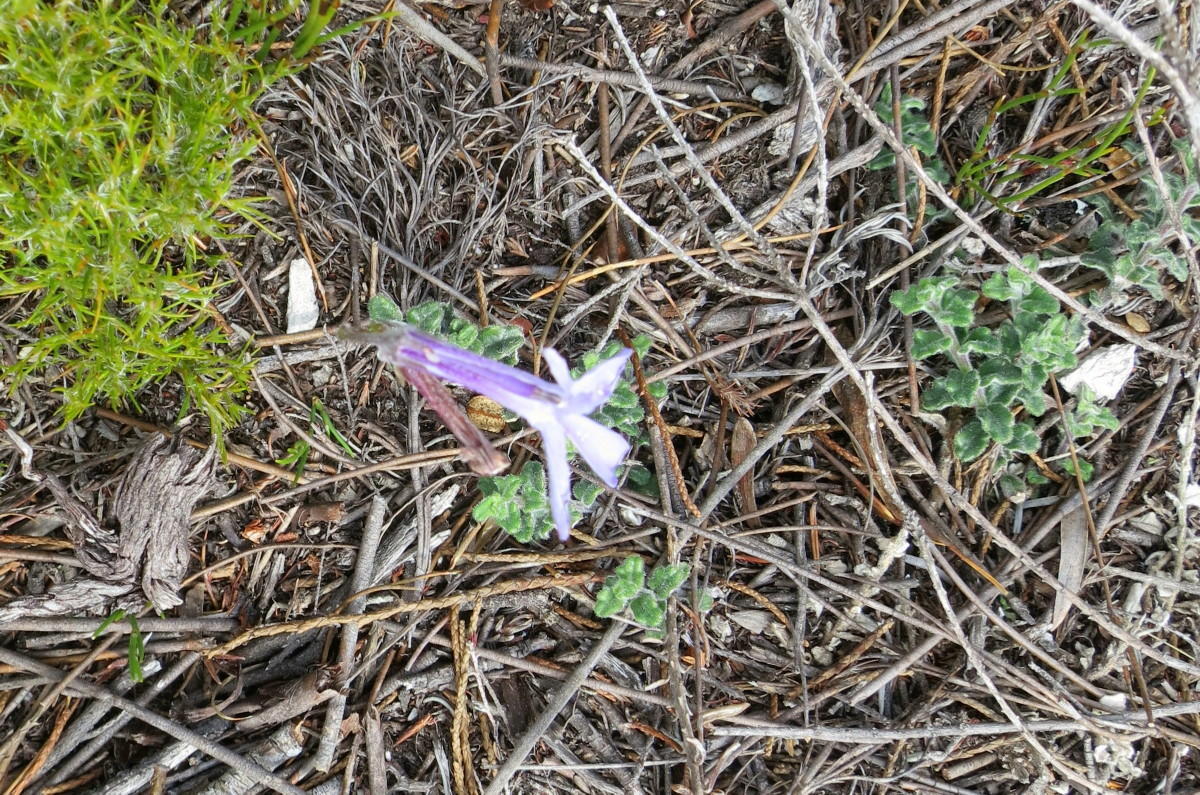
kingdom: Plantae
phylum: Tracheophyta
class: Magnoliopsida
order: Asterales
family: Campanulaceae
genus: Lobelia
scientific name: Lobelia dichroma
